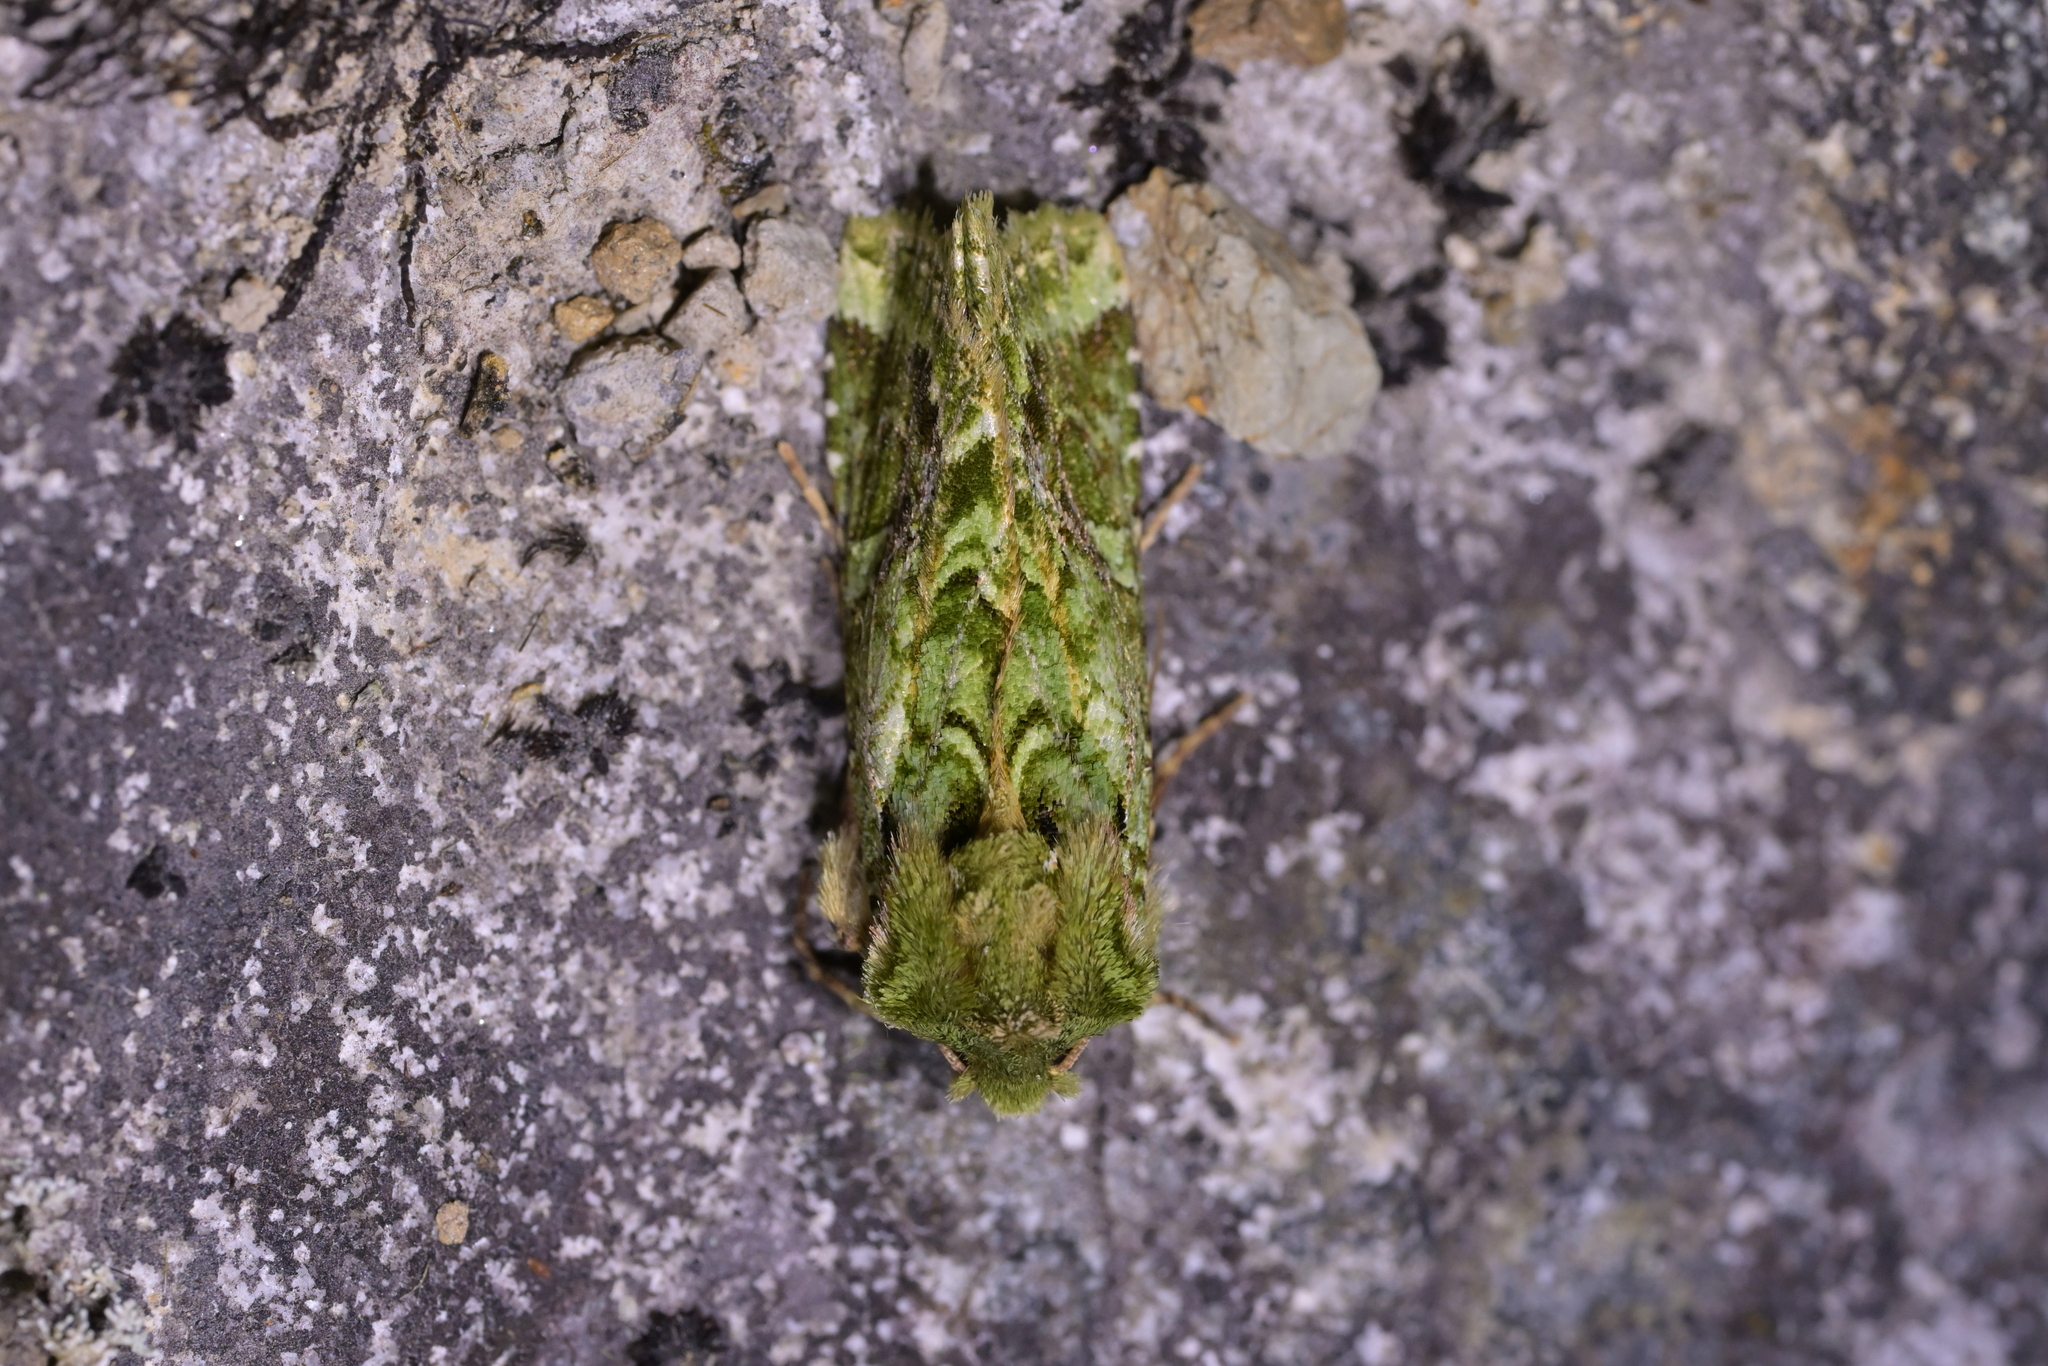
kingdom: Animalia
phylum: Arthropoda
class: Insecta
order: Lepidoptera
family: Noctuidae
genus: Feredayia
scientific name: Feredayia grammosa
